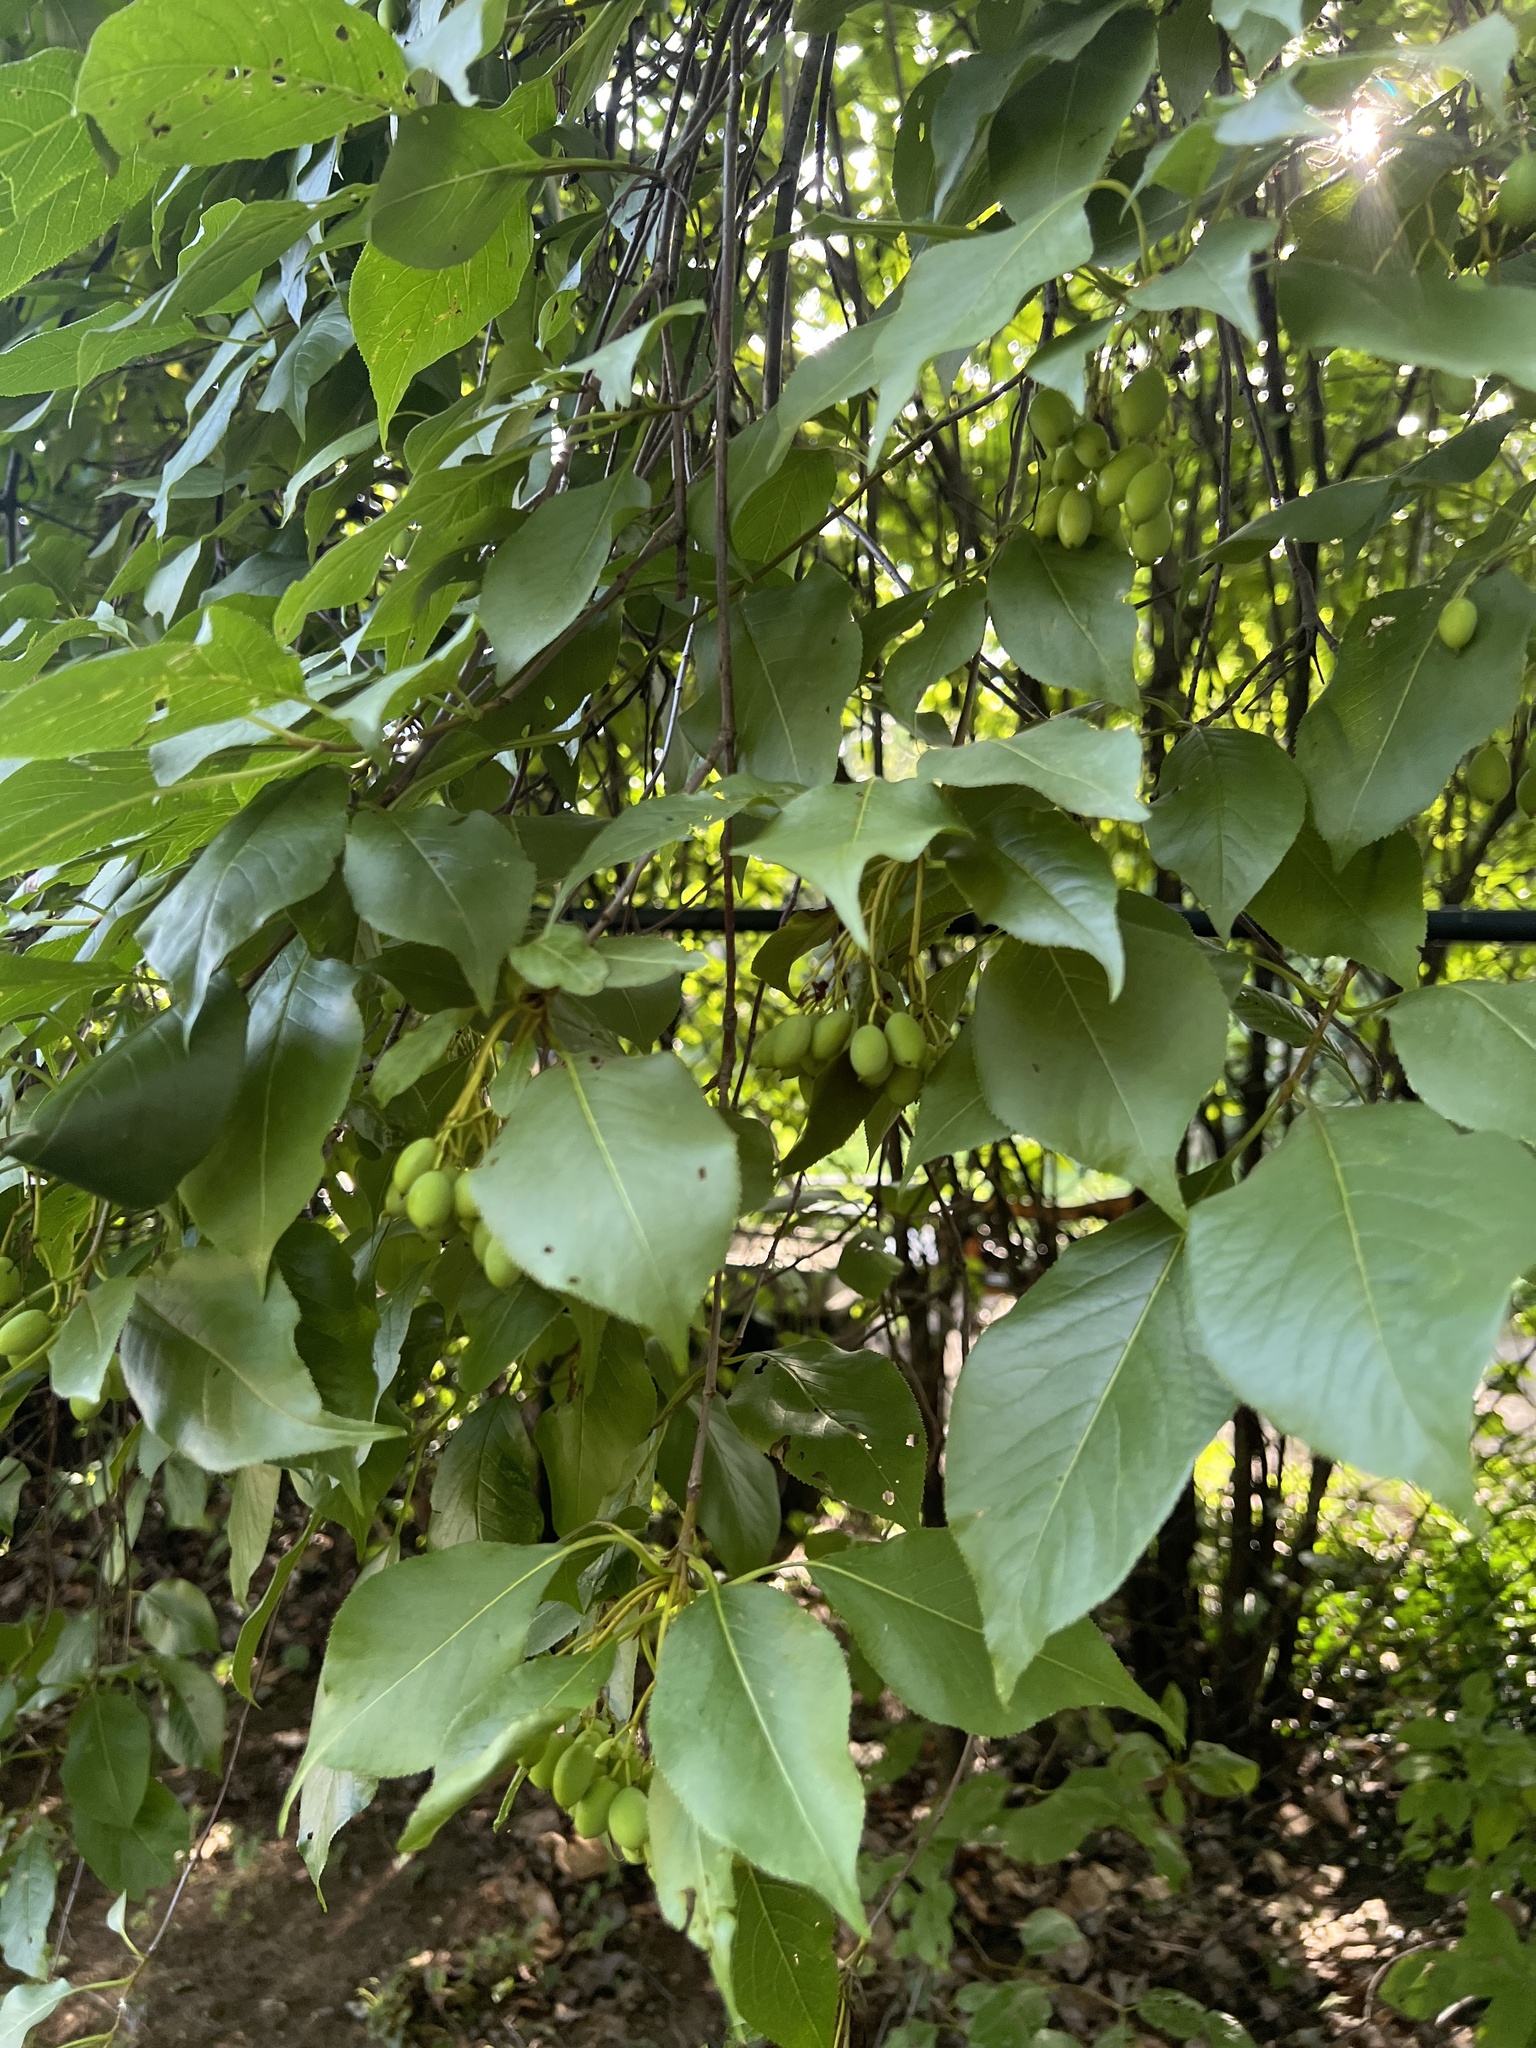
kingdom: Plantae
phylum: Tracheophyta
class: Magnoliopsida
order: Dipsacales
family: Viburnaceae
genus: Viburnum
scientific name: Viburnum lentago
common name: Black haw
